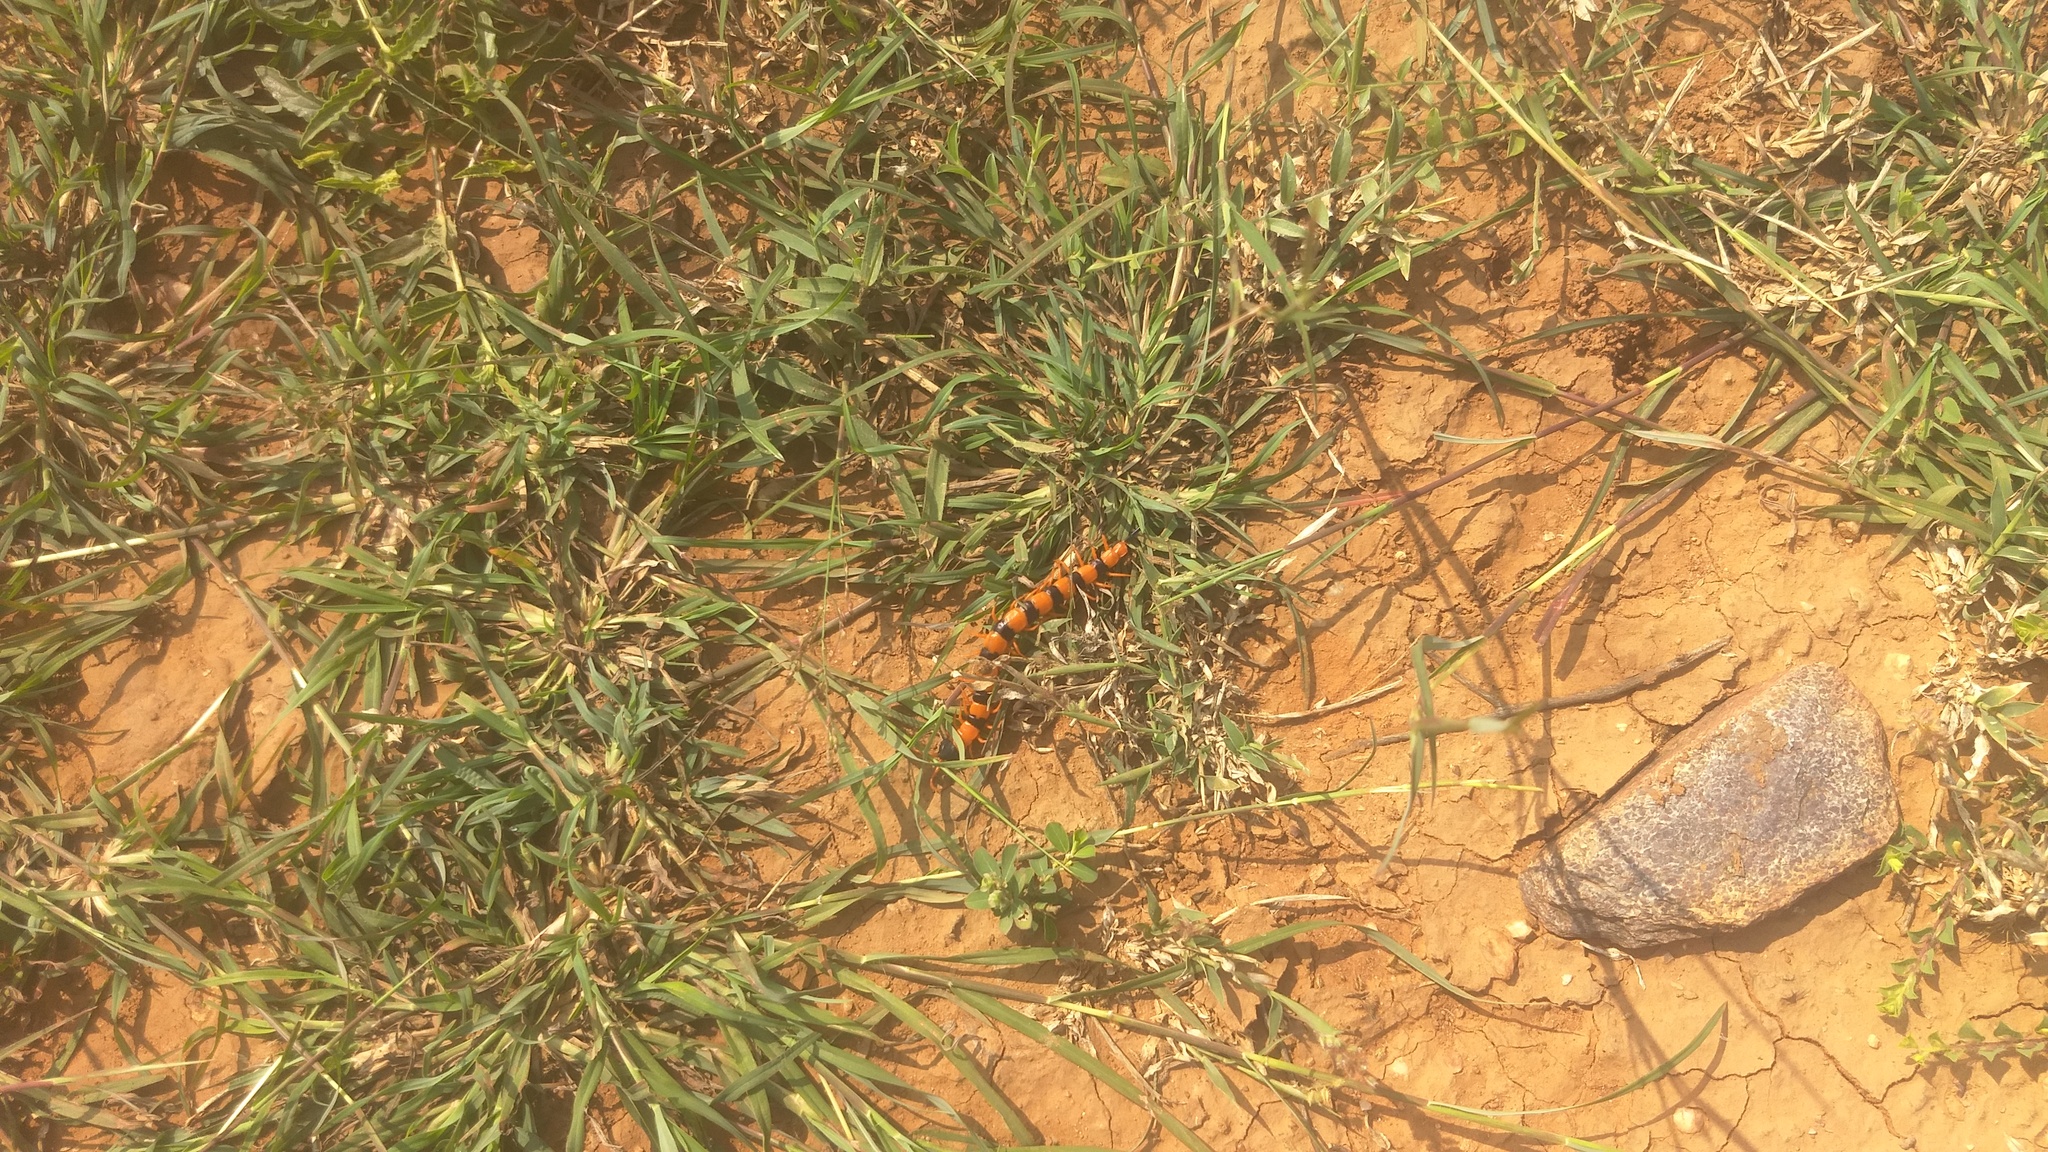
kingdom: Animalia
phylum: Arthropoda
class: Chilopoda
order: Scolopendromorpha
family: Scolopendridae
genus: Scolopendra
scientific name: Scolopendra hardwickei
